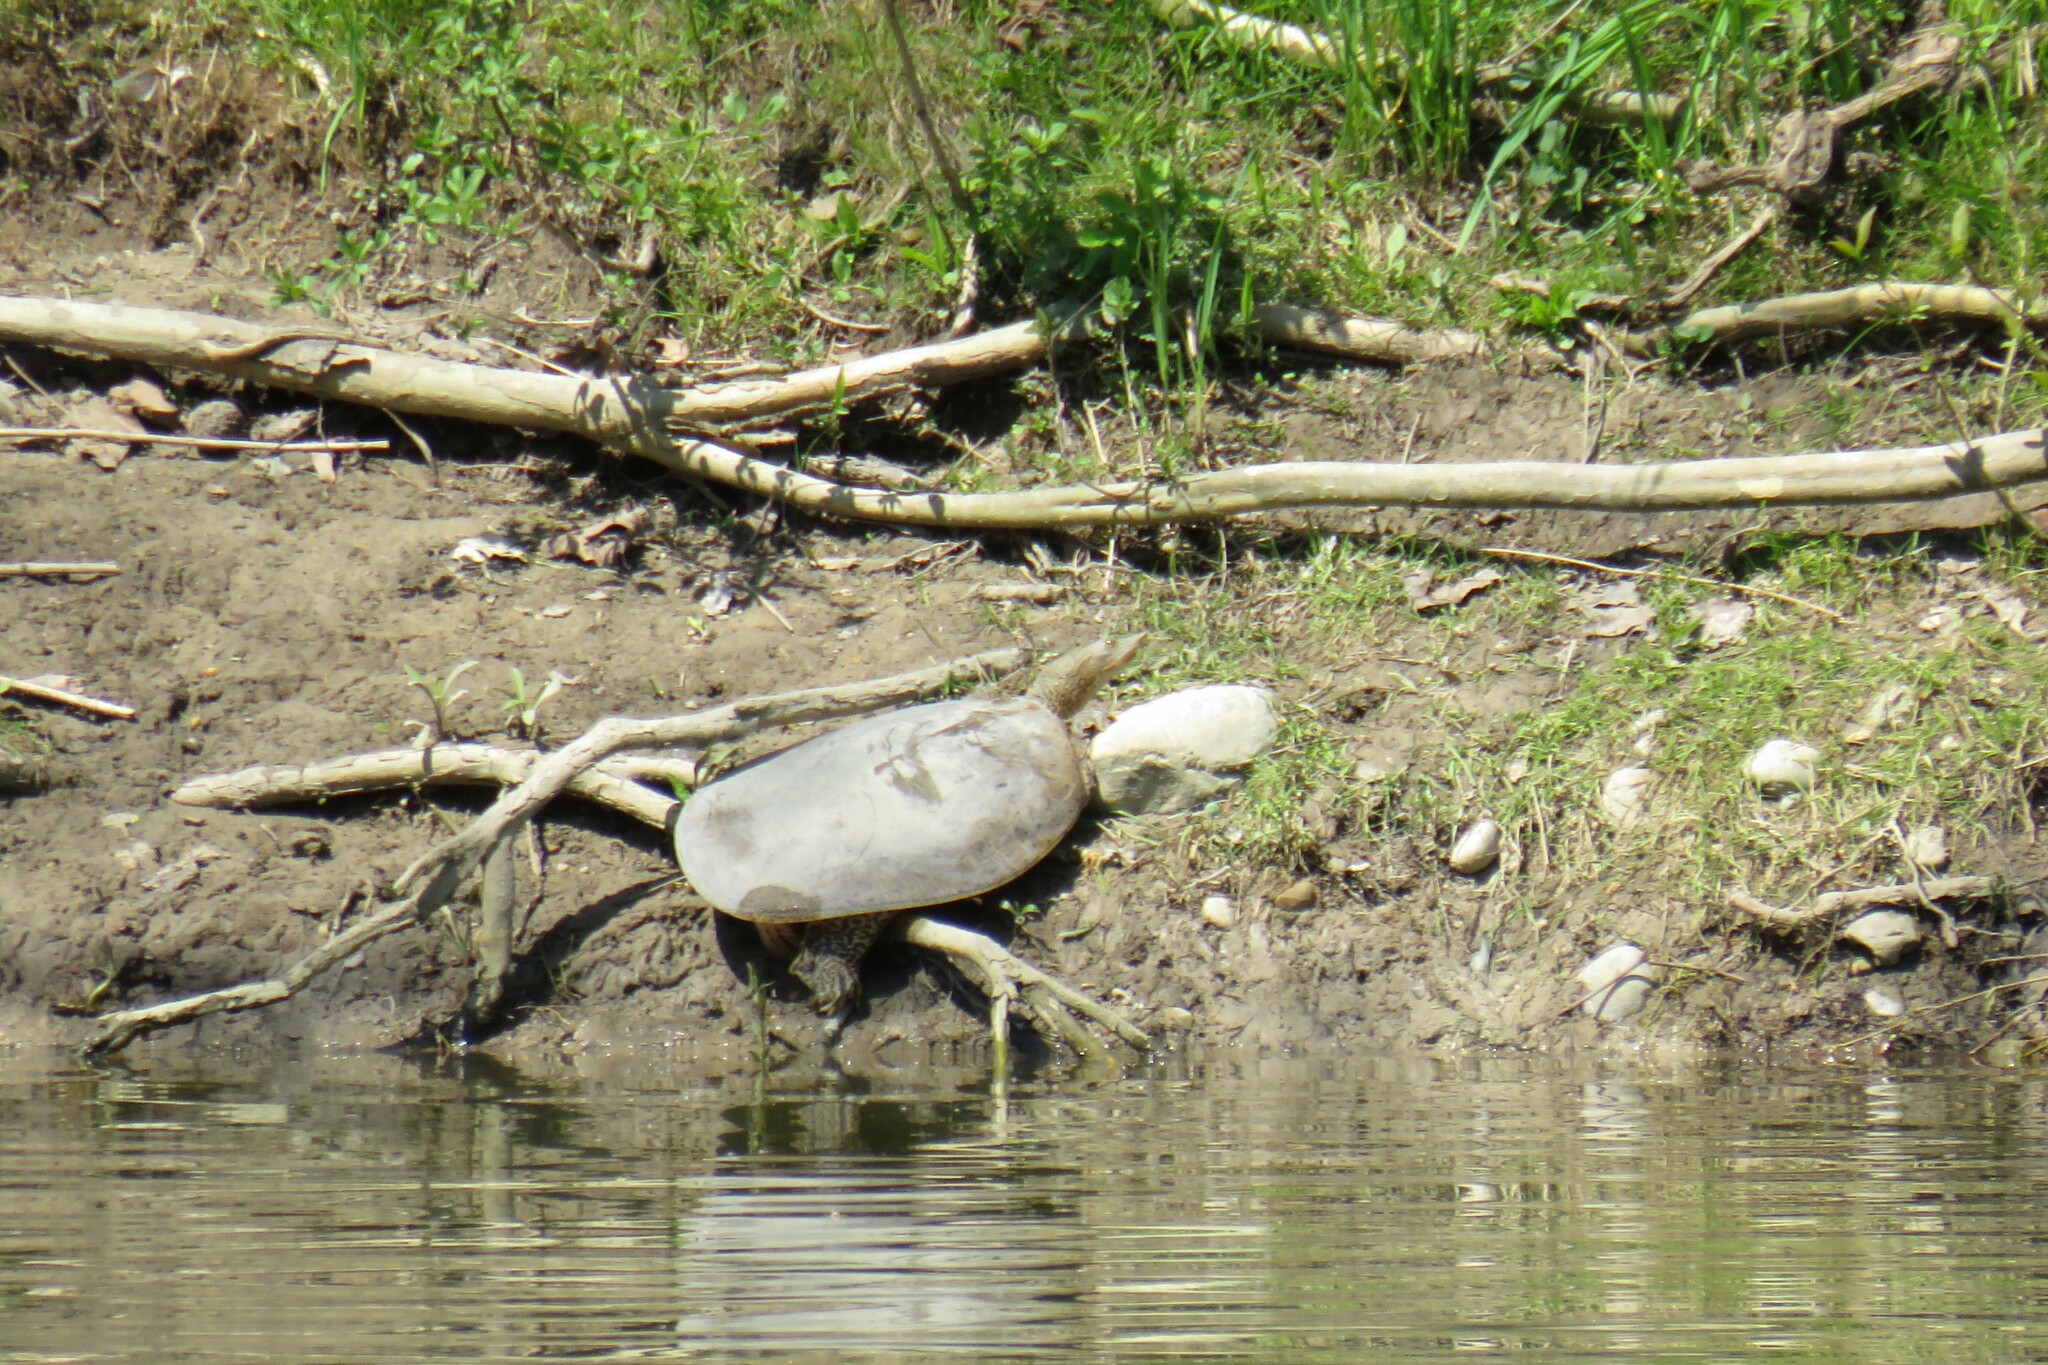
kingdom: Animalia
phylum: Chordata
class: Testudines
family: Trionychidae
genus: Apalone
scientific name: Apalone spinifera
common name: Spiny softshell turtle
